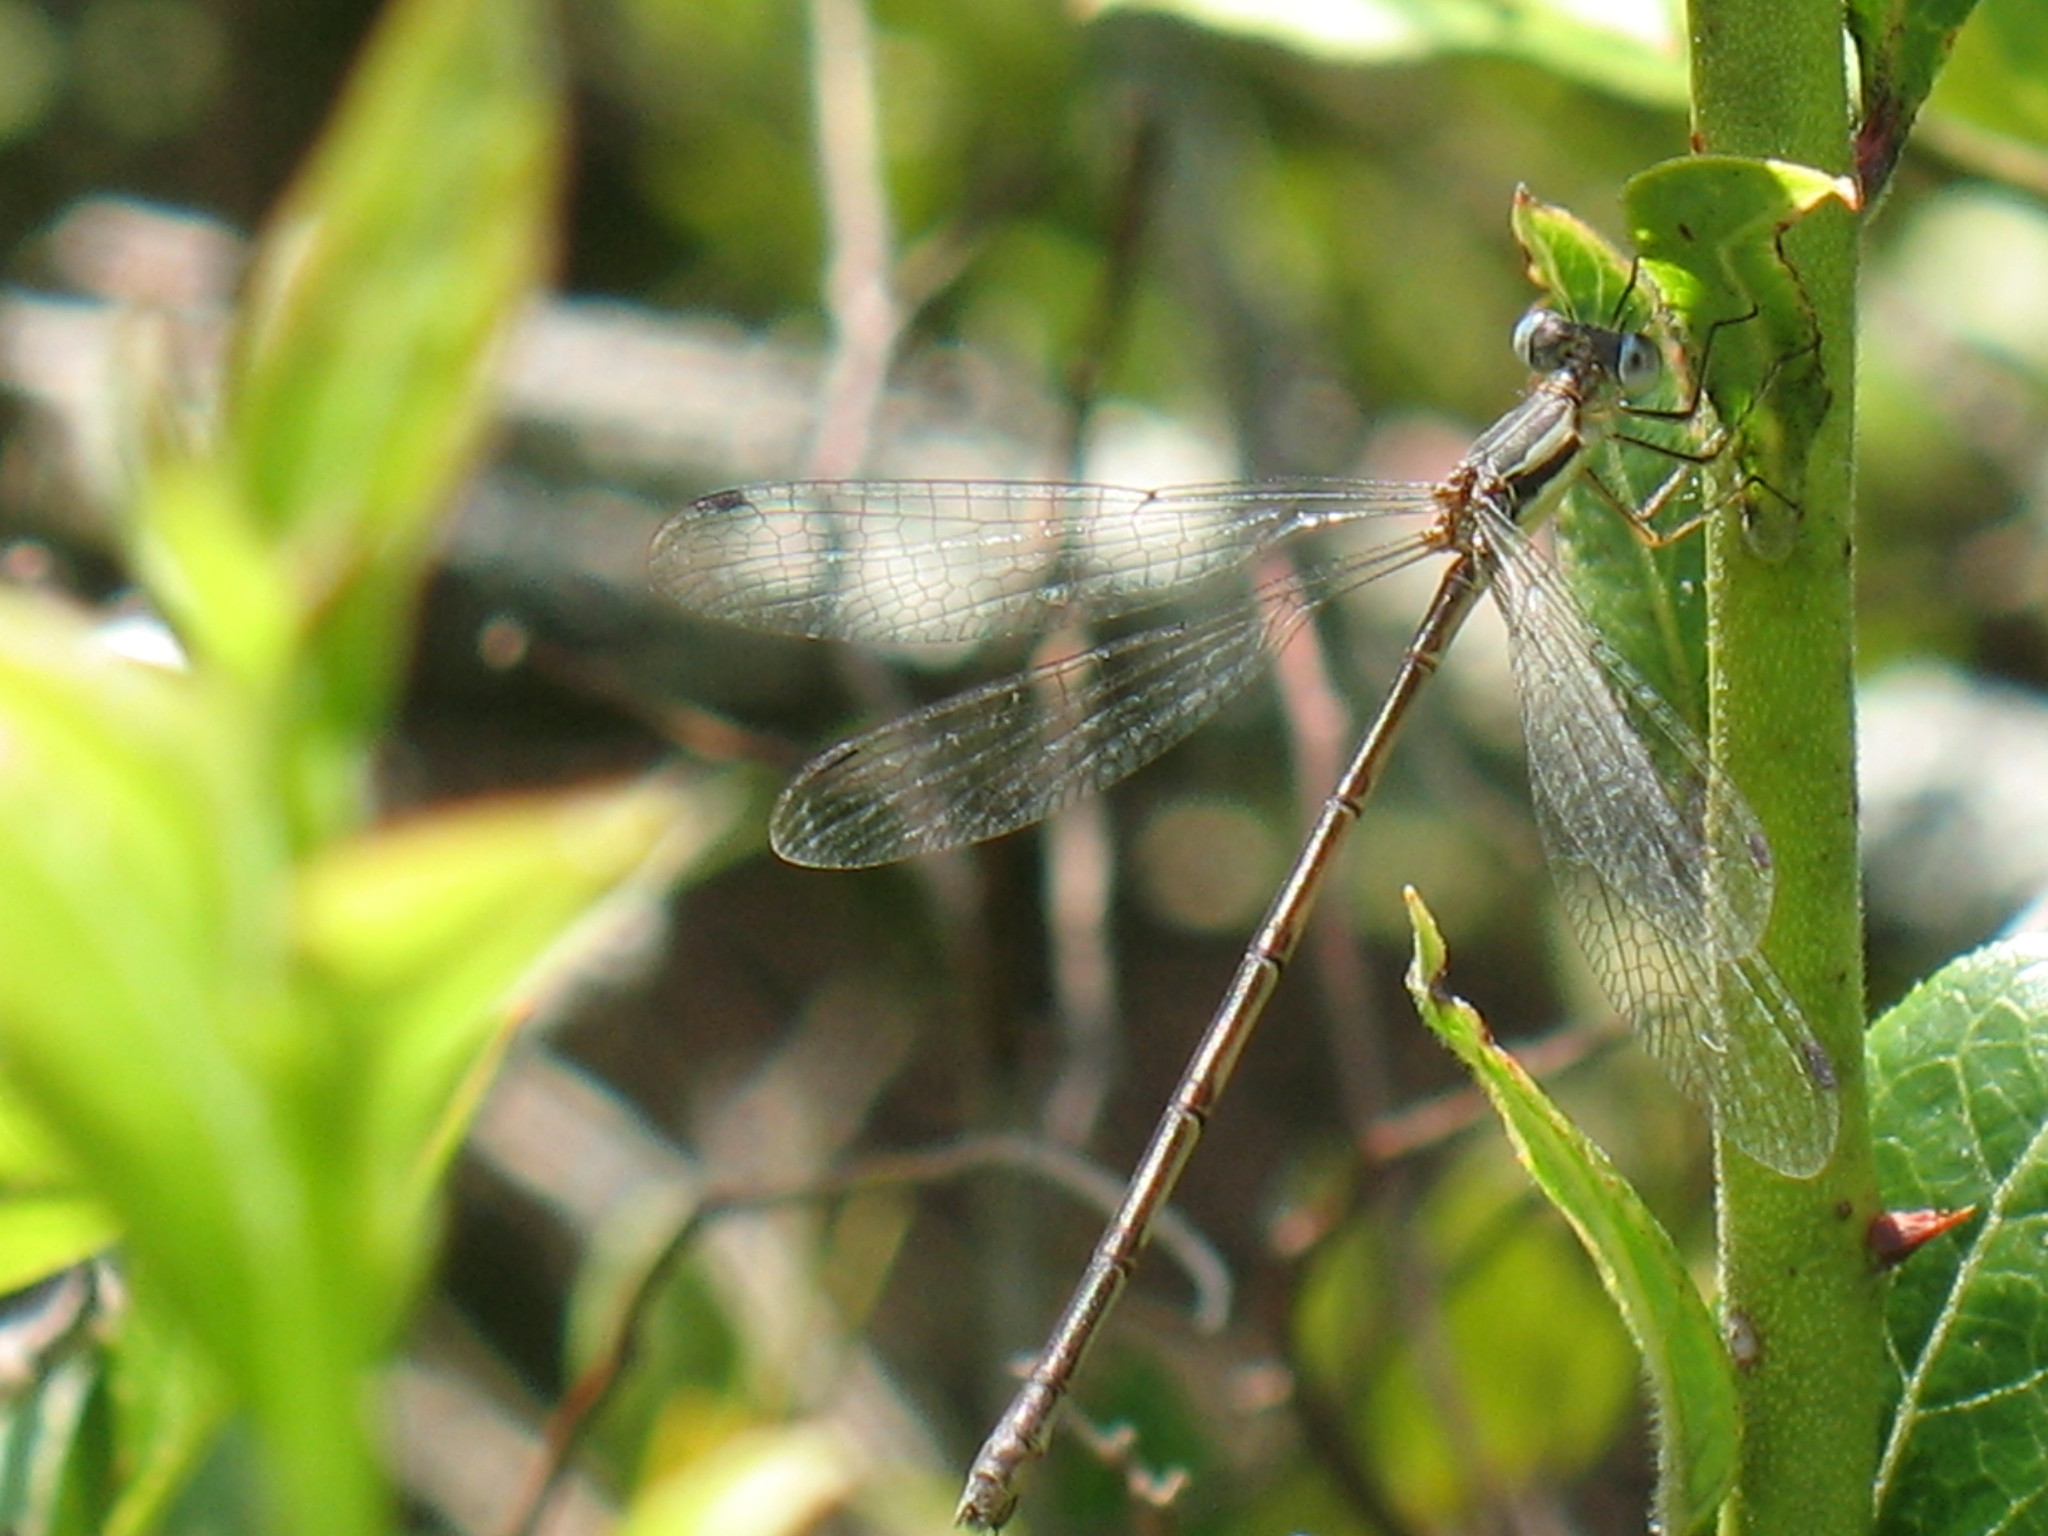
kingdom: Animalia
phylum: Arthropoda
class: Insecta
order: Odonata
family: Lestidae
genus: Lestes
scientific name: Lestes rectangularis
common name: Slender spreadwing
